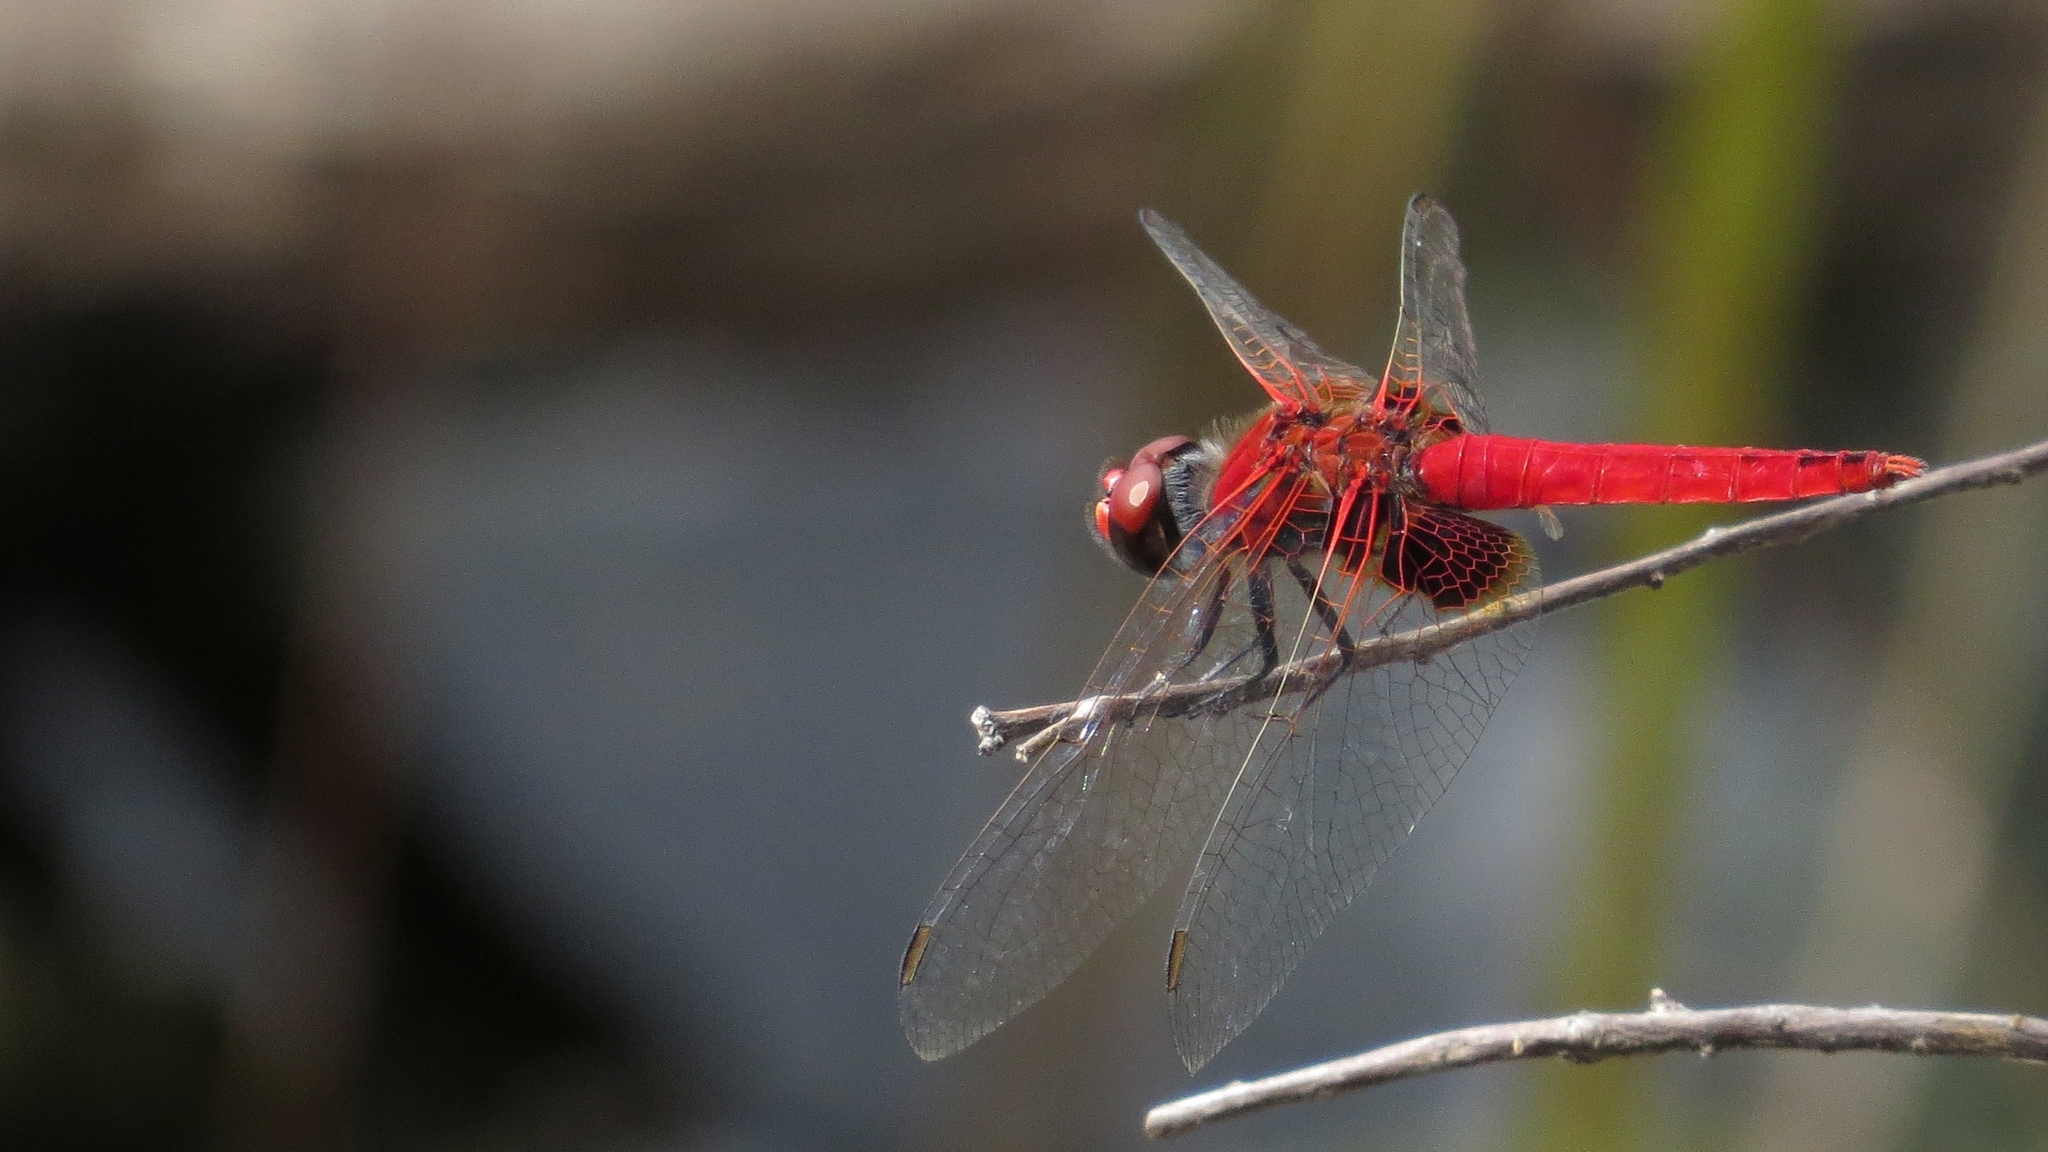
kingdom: Animalia
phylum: Arthropoda
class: Insecta
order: Odonata
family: Libellulidae
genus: Aethriamanta
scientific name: Aethriamanta circumsignata
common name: Square-spot basker
